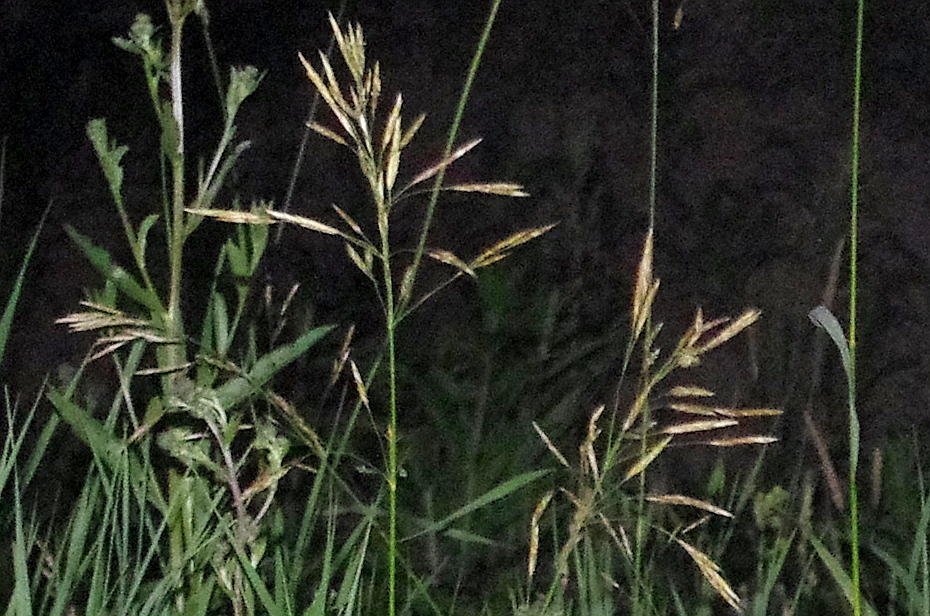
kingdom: Plantae
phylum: Tracheophyta
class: Liliopsida
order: Poales
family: Poaceae
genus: Bromus
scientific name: Bromus inermis
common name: Smooth brome
